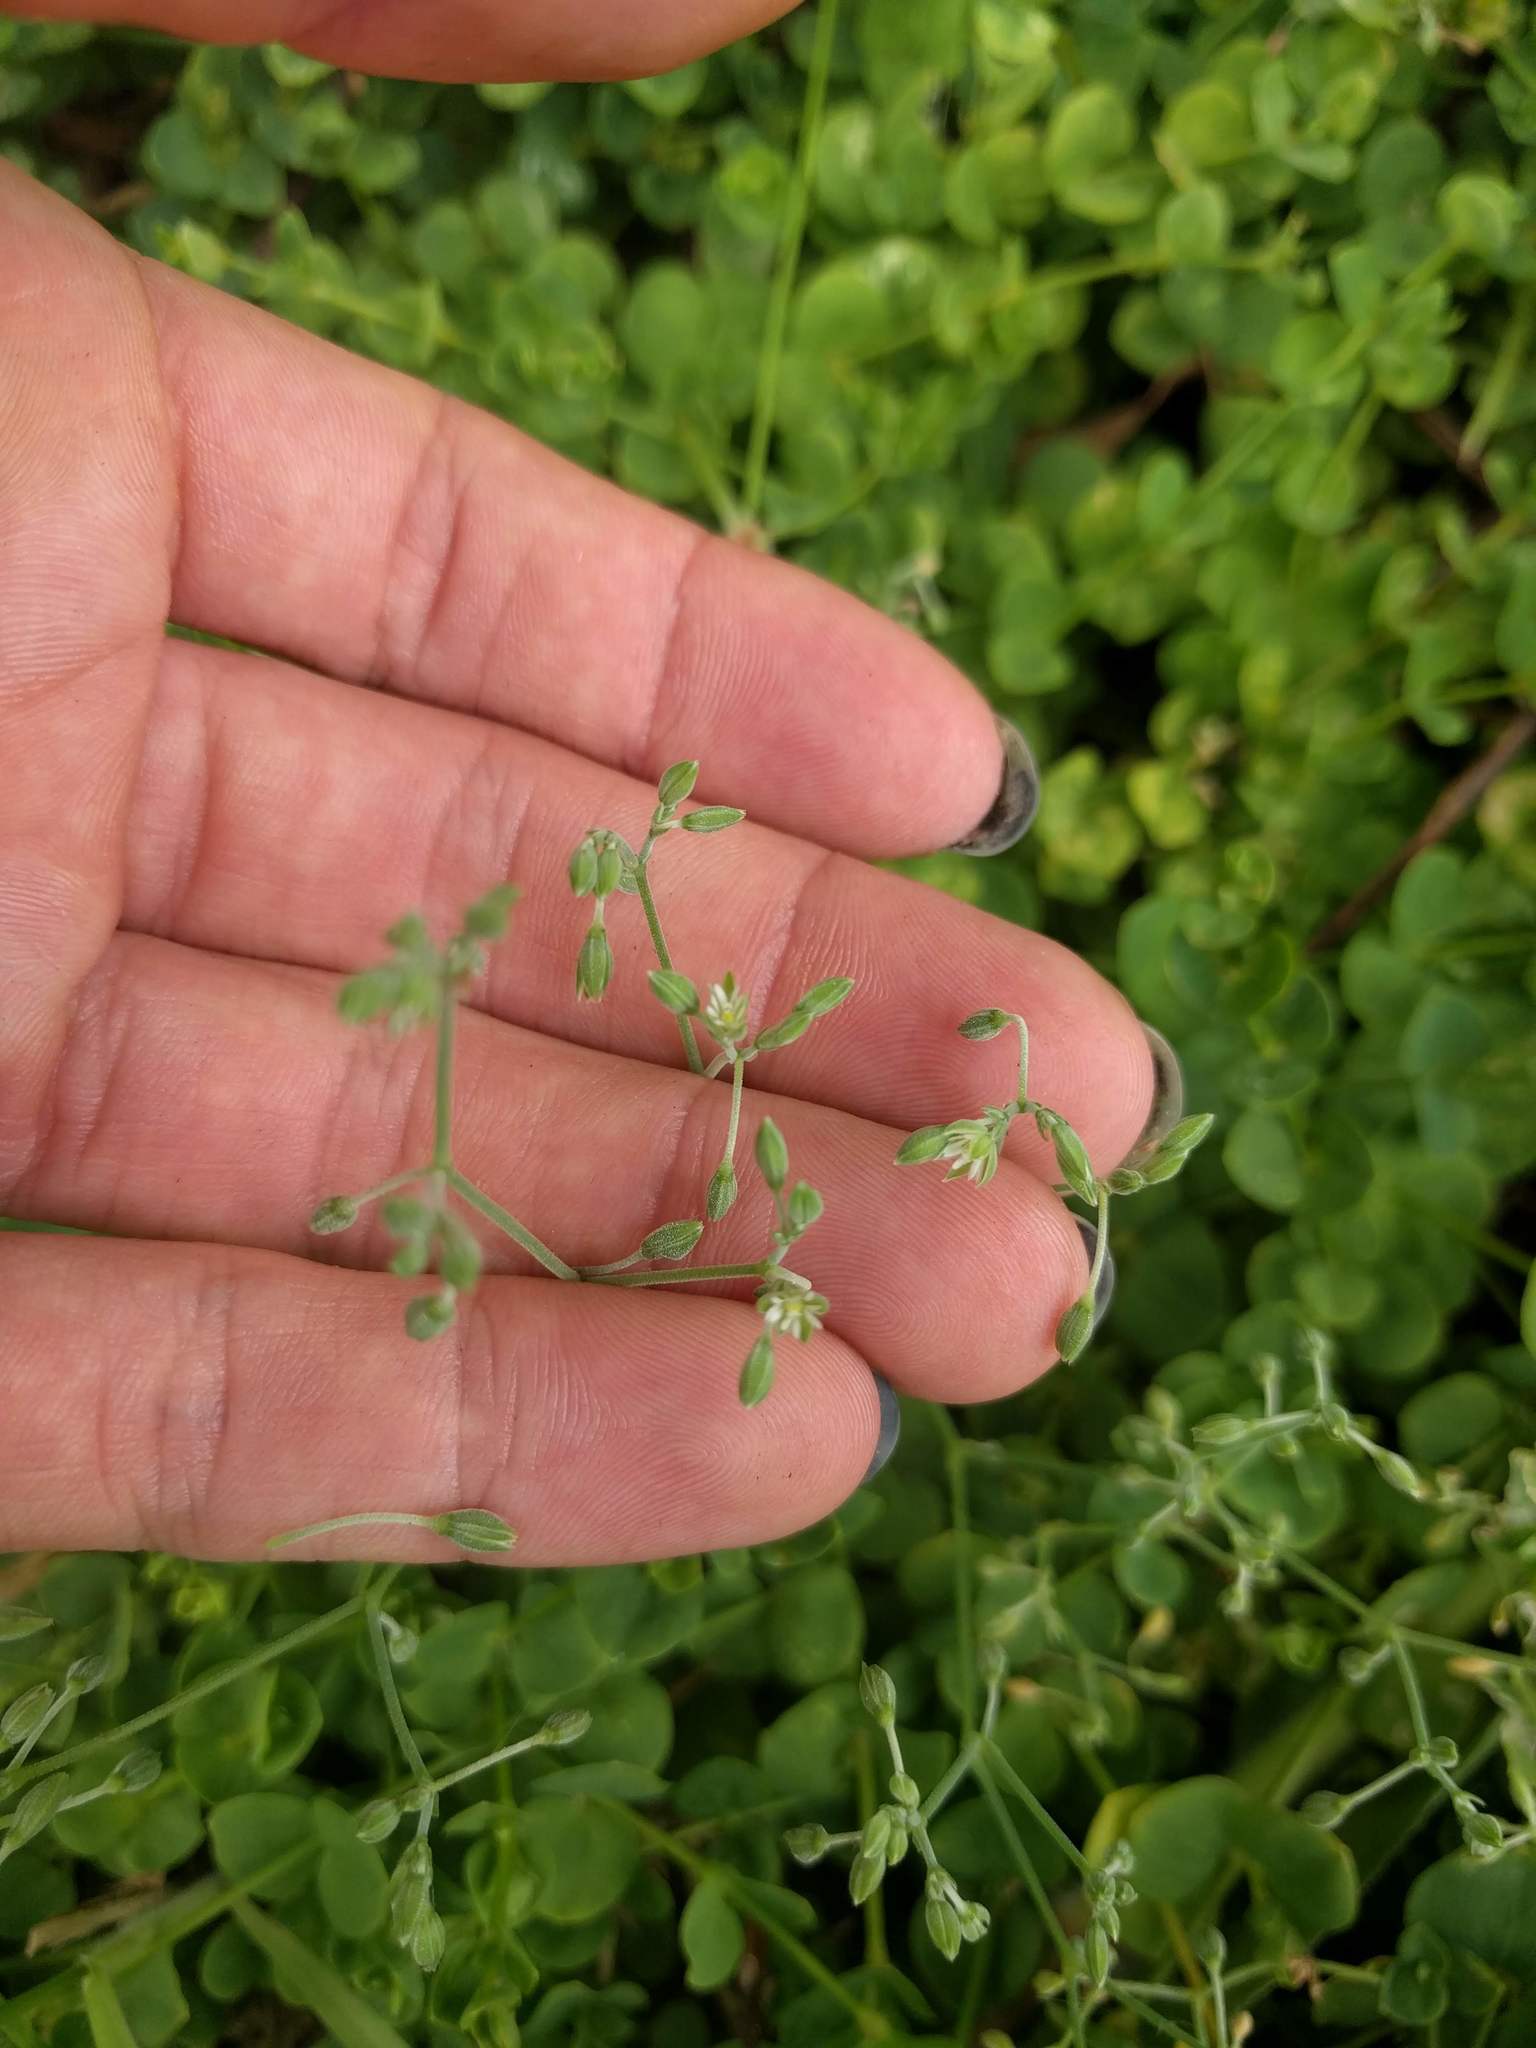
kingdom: Plantae
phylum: Tracheophyta
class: Magnoliopsida
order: Caryophyllales
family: Caryophyllaceae
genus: Drymaria
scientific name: Drymaria cordata
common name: Whitesnow
